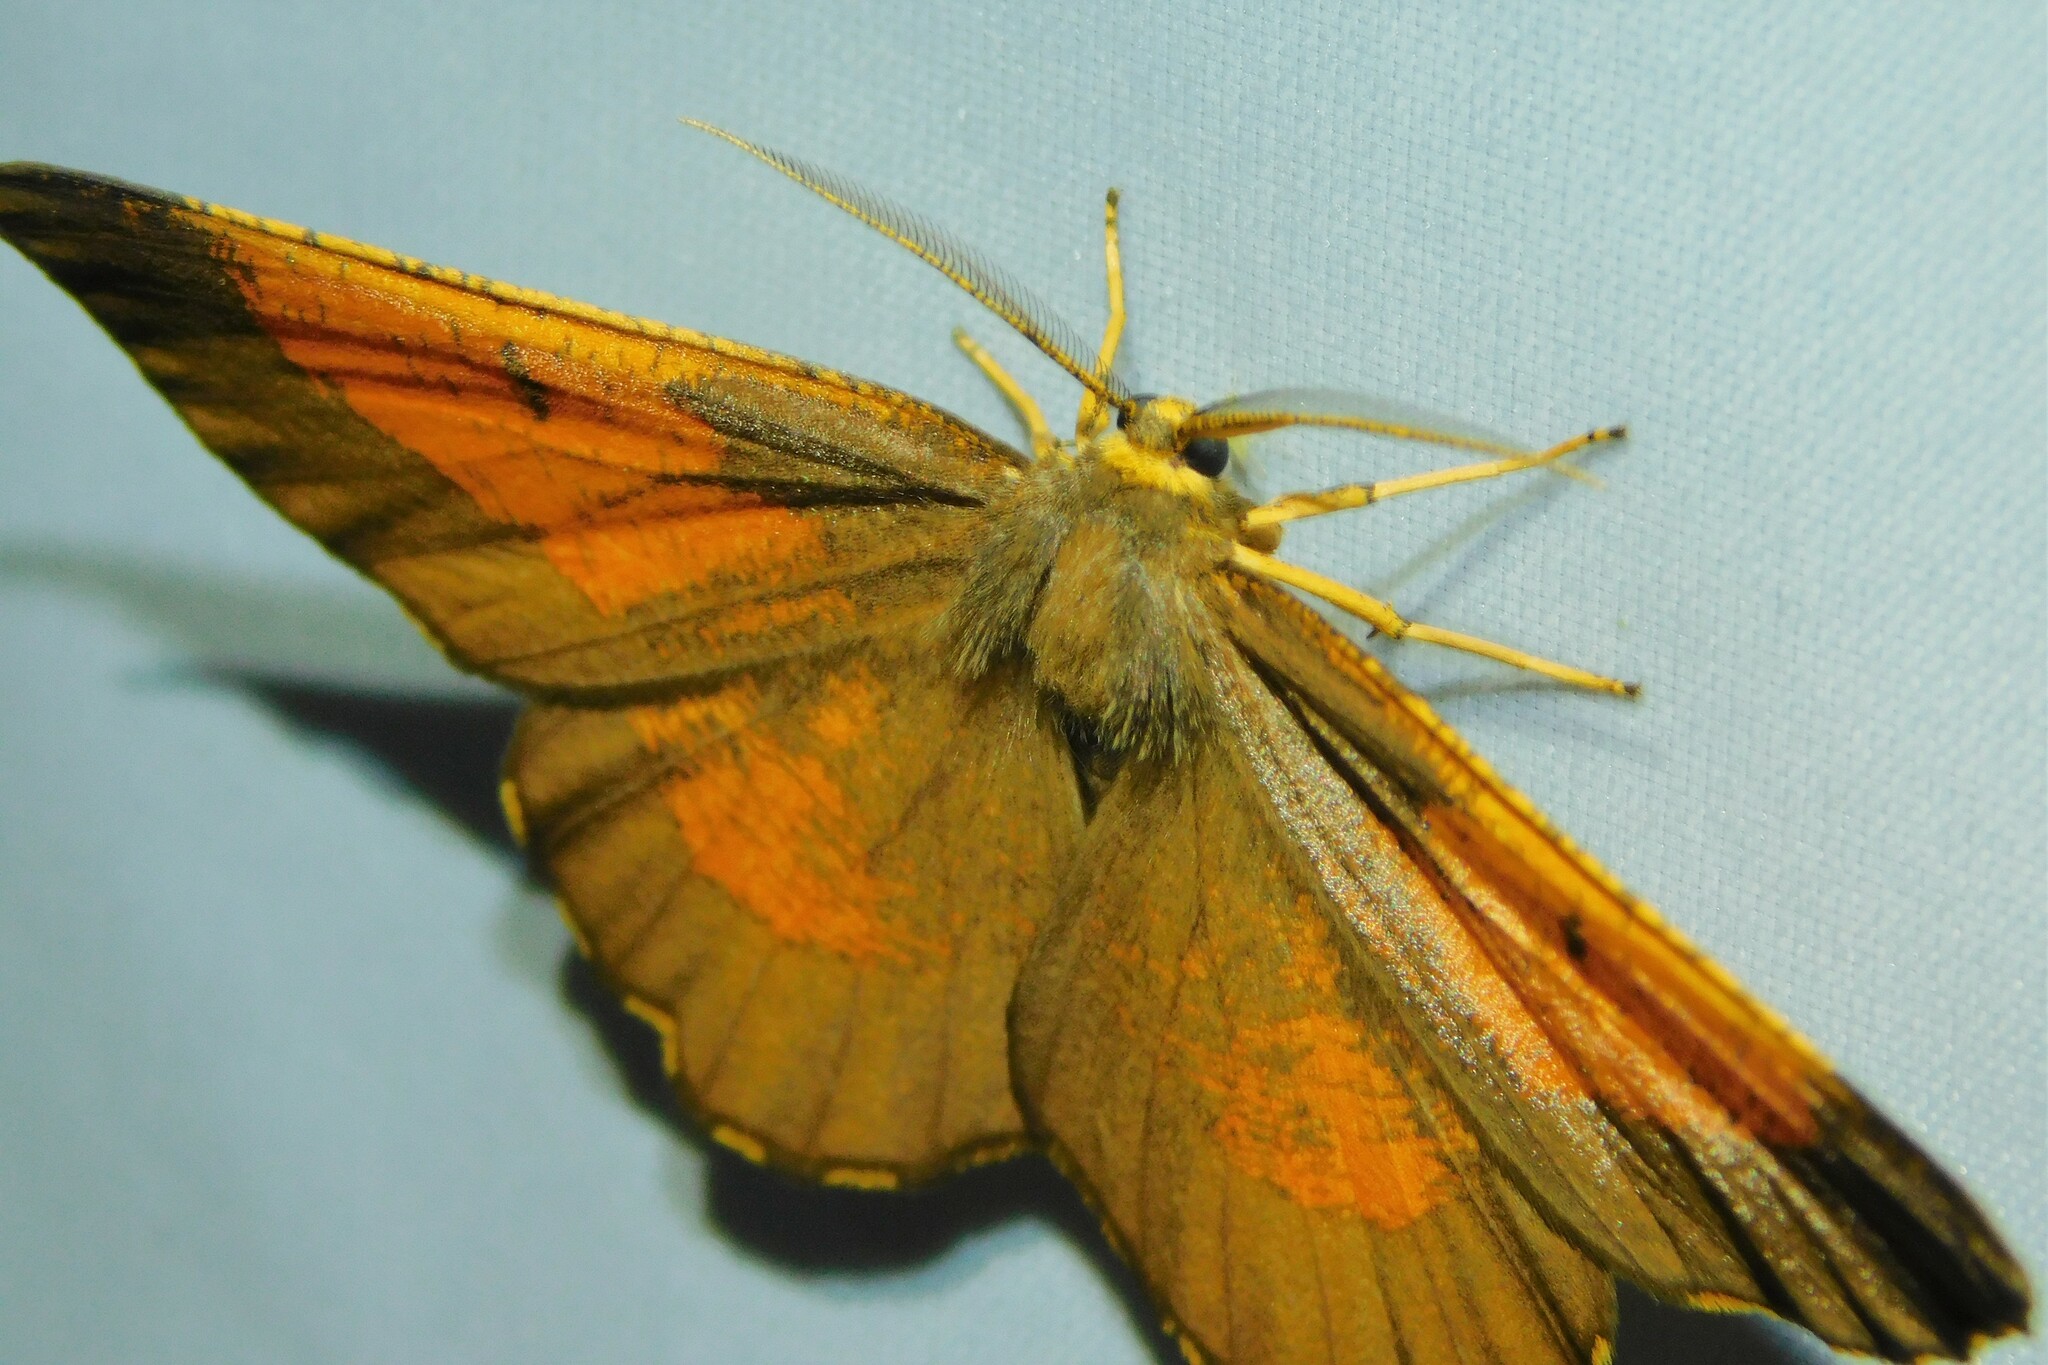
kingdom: Animalia
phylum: Arthropoda
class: Insecta
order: Lepidoptera
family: Geometridae
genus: Angerona
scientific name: Angerona prunaria
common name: Orange moth
